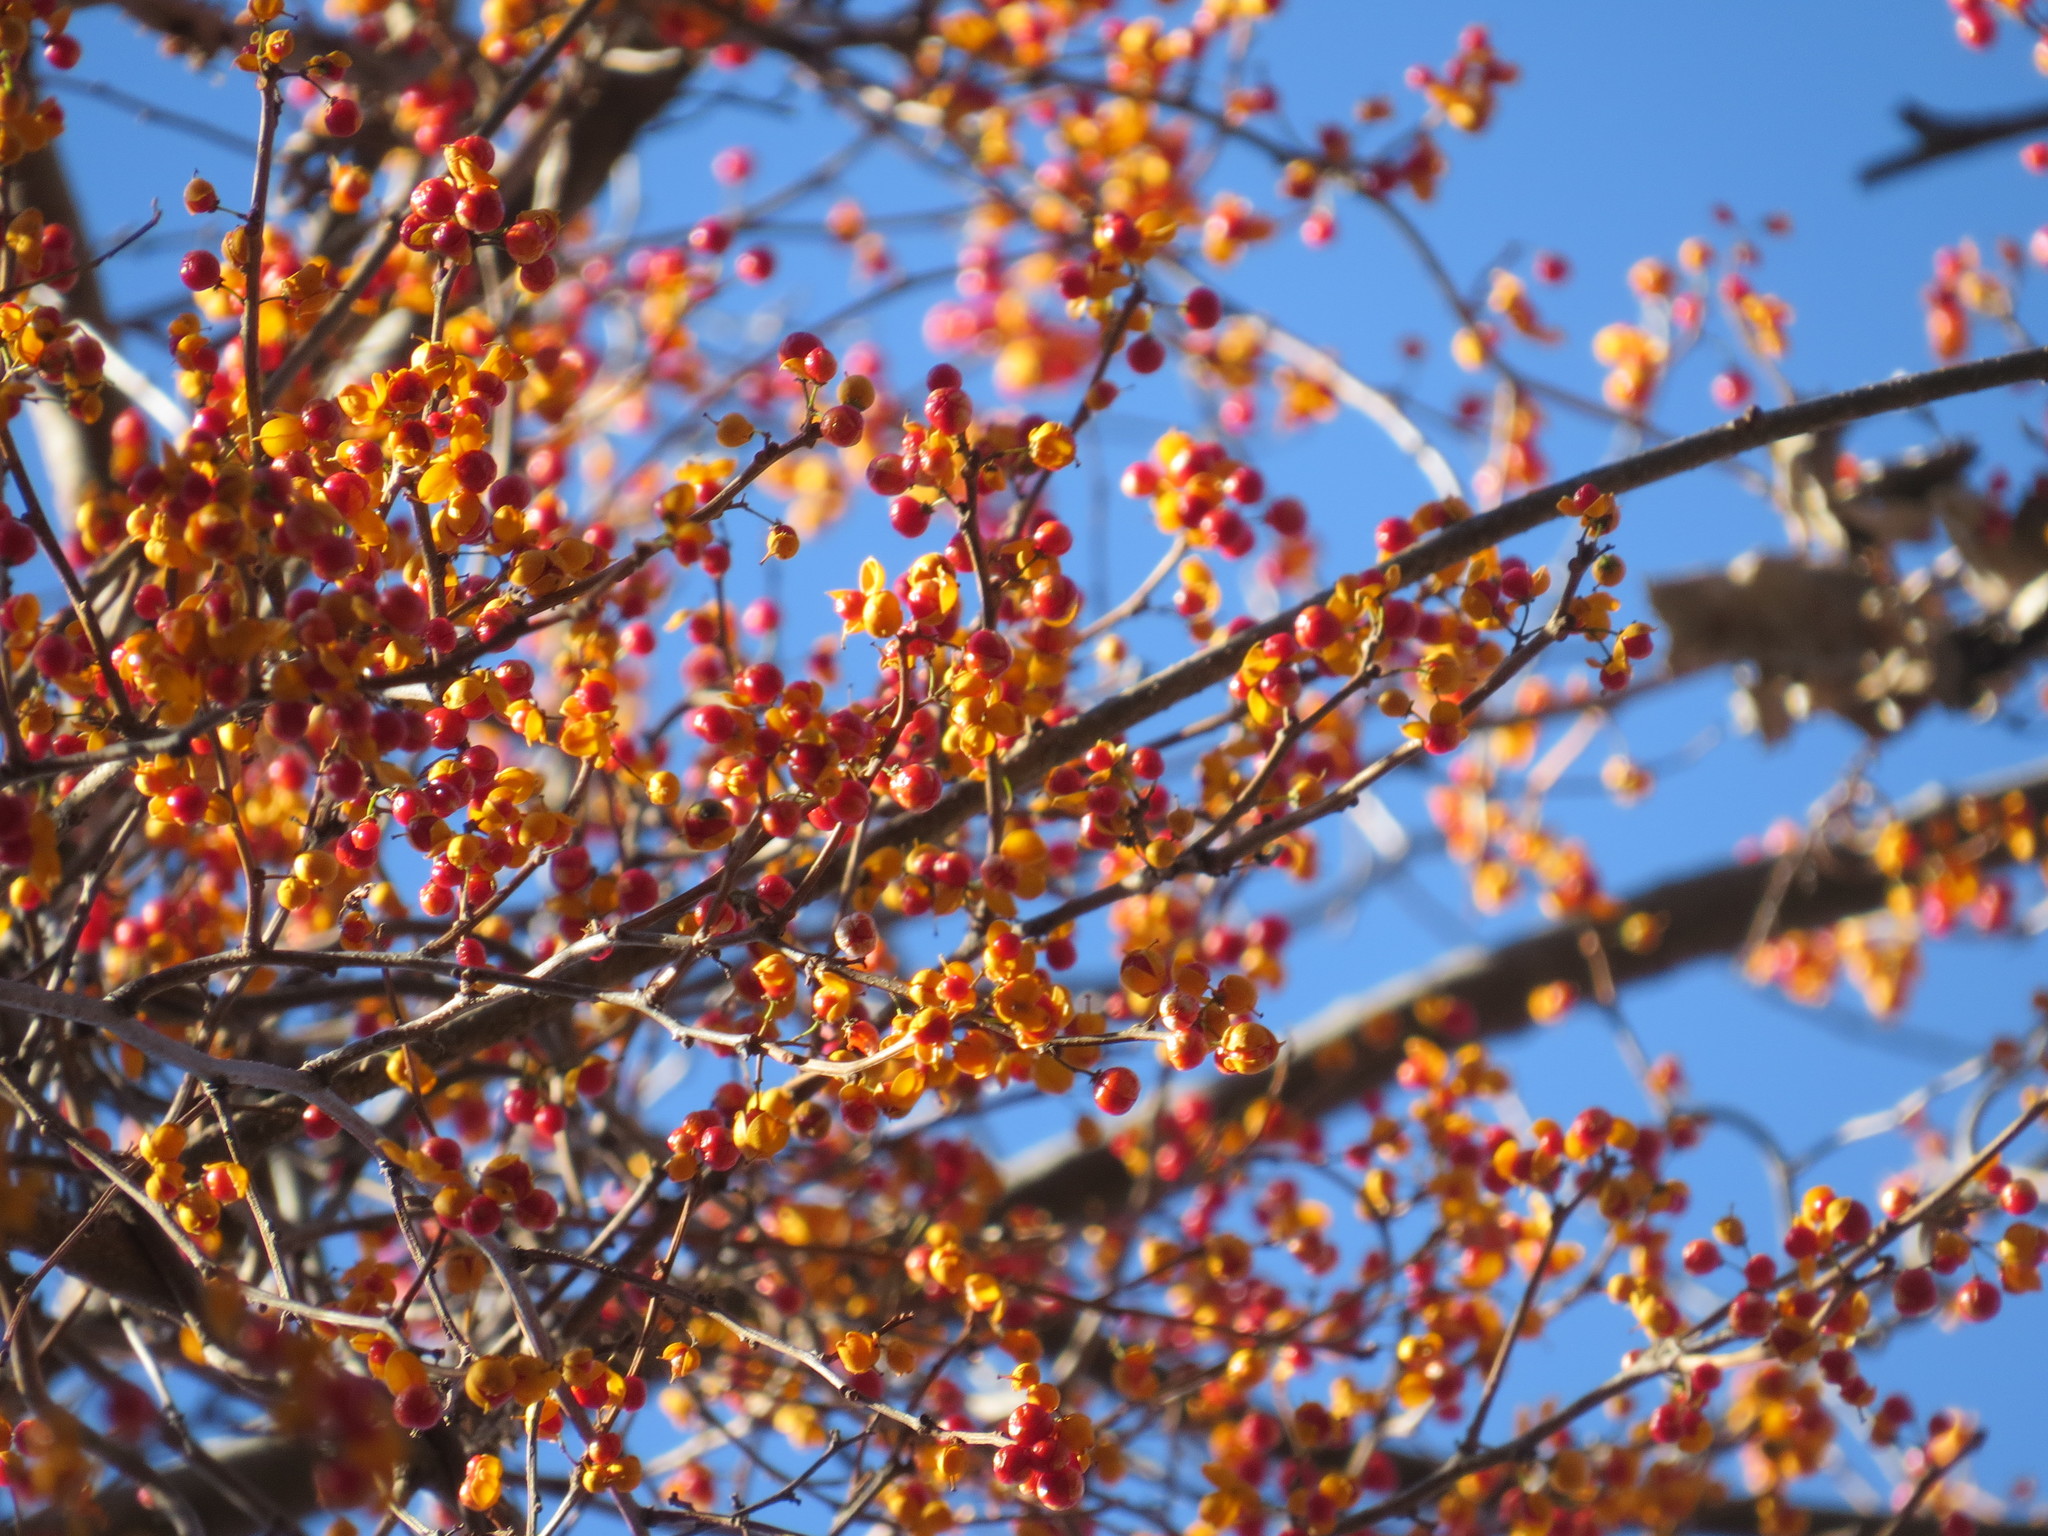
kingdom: Plantae
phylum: Tracheophyta
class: Magnoliopsida
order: Celastrales
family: Celastraceae
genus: Celastrus
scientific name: Celastrus orbiculatus
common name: Oriental bittersweet
